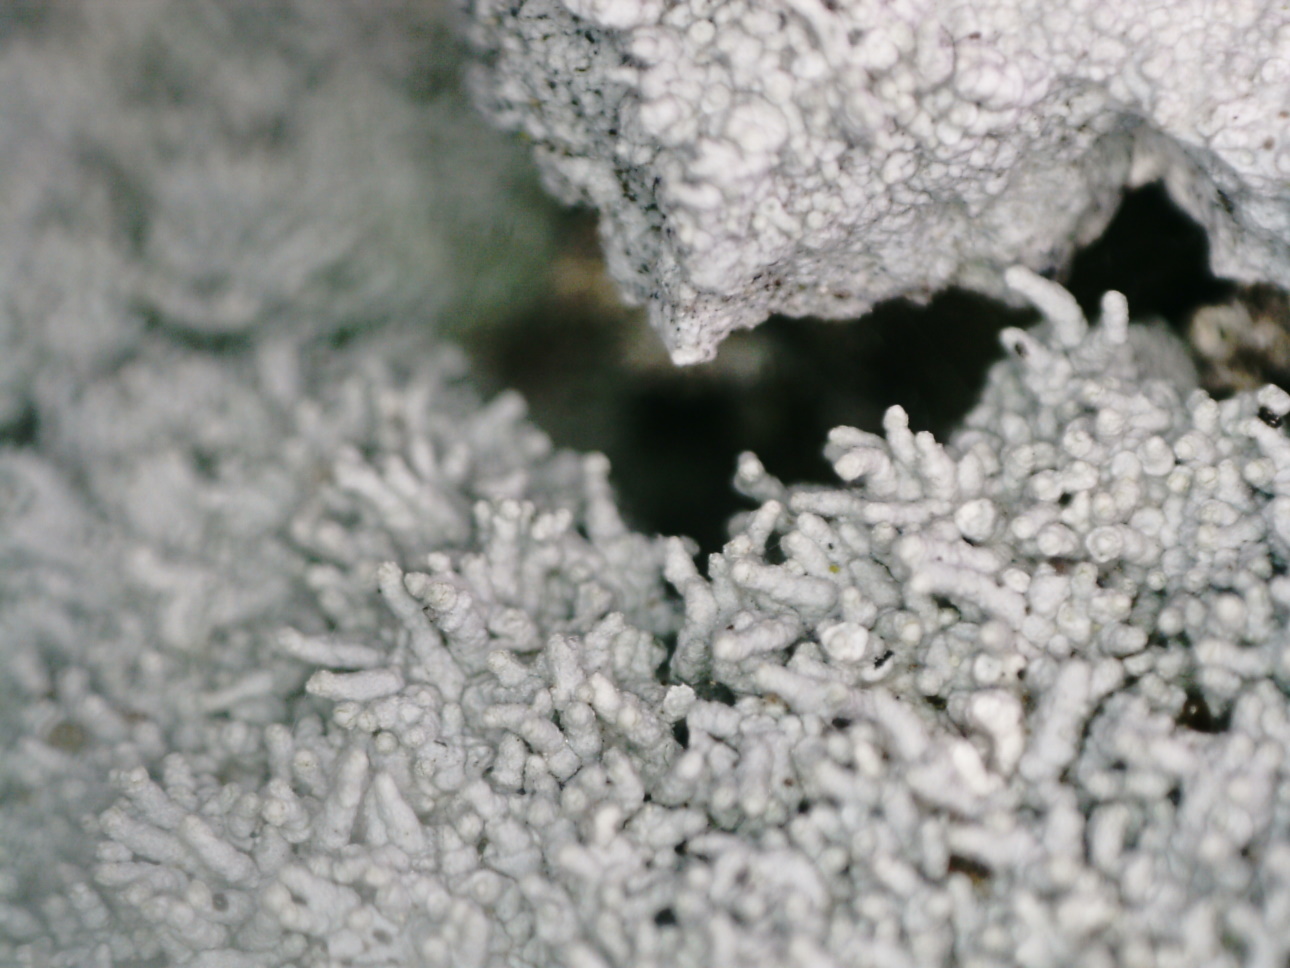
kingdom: Fungi
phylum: Ascomycota
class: Lecanoromycetes
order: Pertusariales
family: Pertusariaceae
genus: Lepra
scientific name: Lepra corallina
